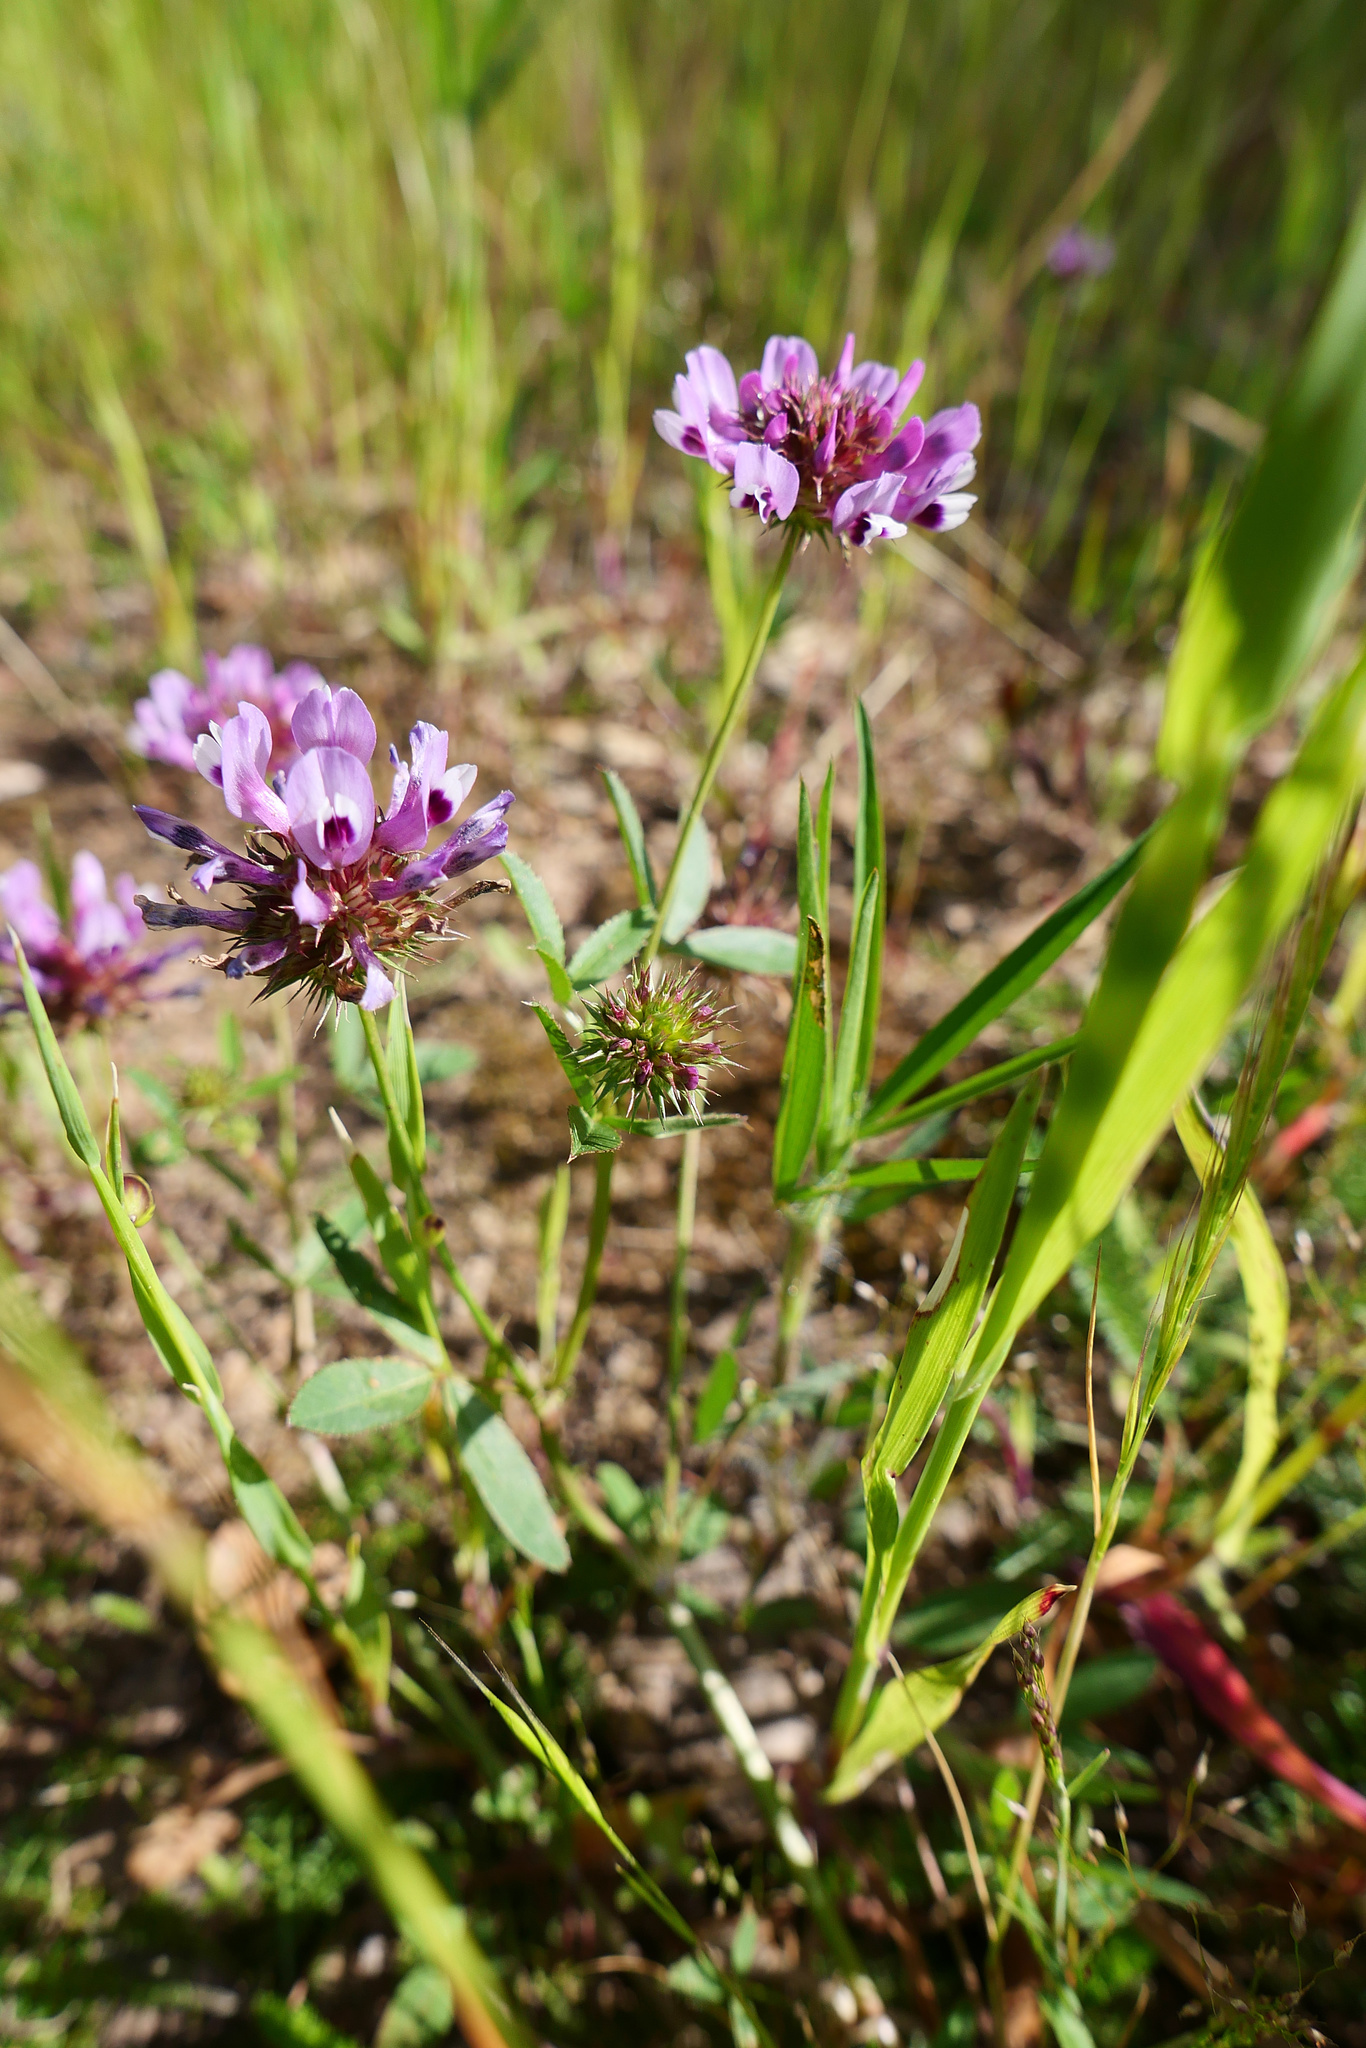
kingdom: Plantae
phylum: Tracheophyta
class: Magnoliopsida
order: Fabales
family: Fabaceae
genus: Trifolium
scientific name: Trifolium willdenovii
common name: Tomcat clover
